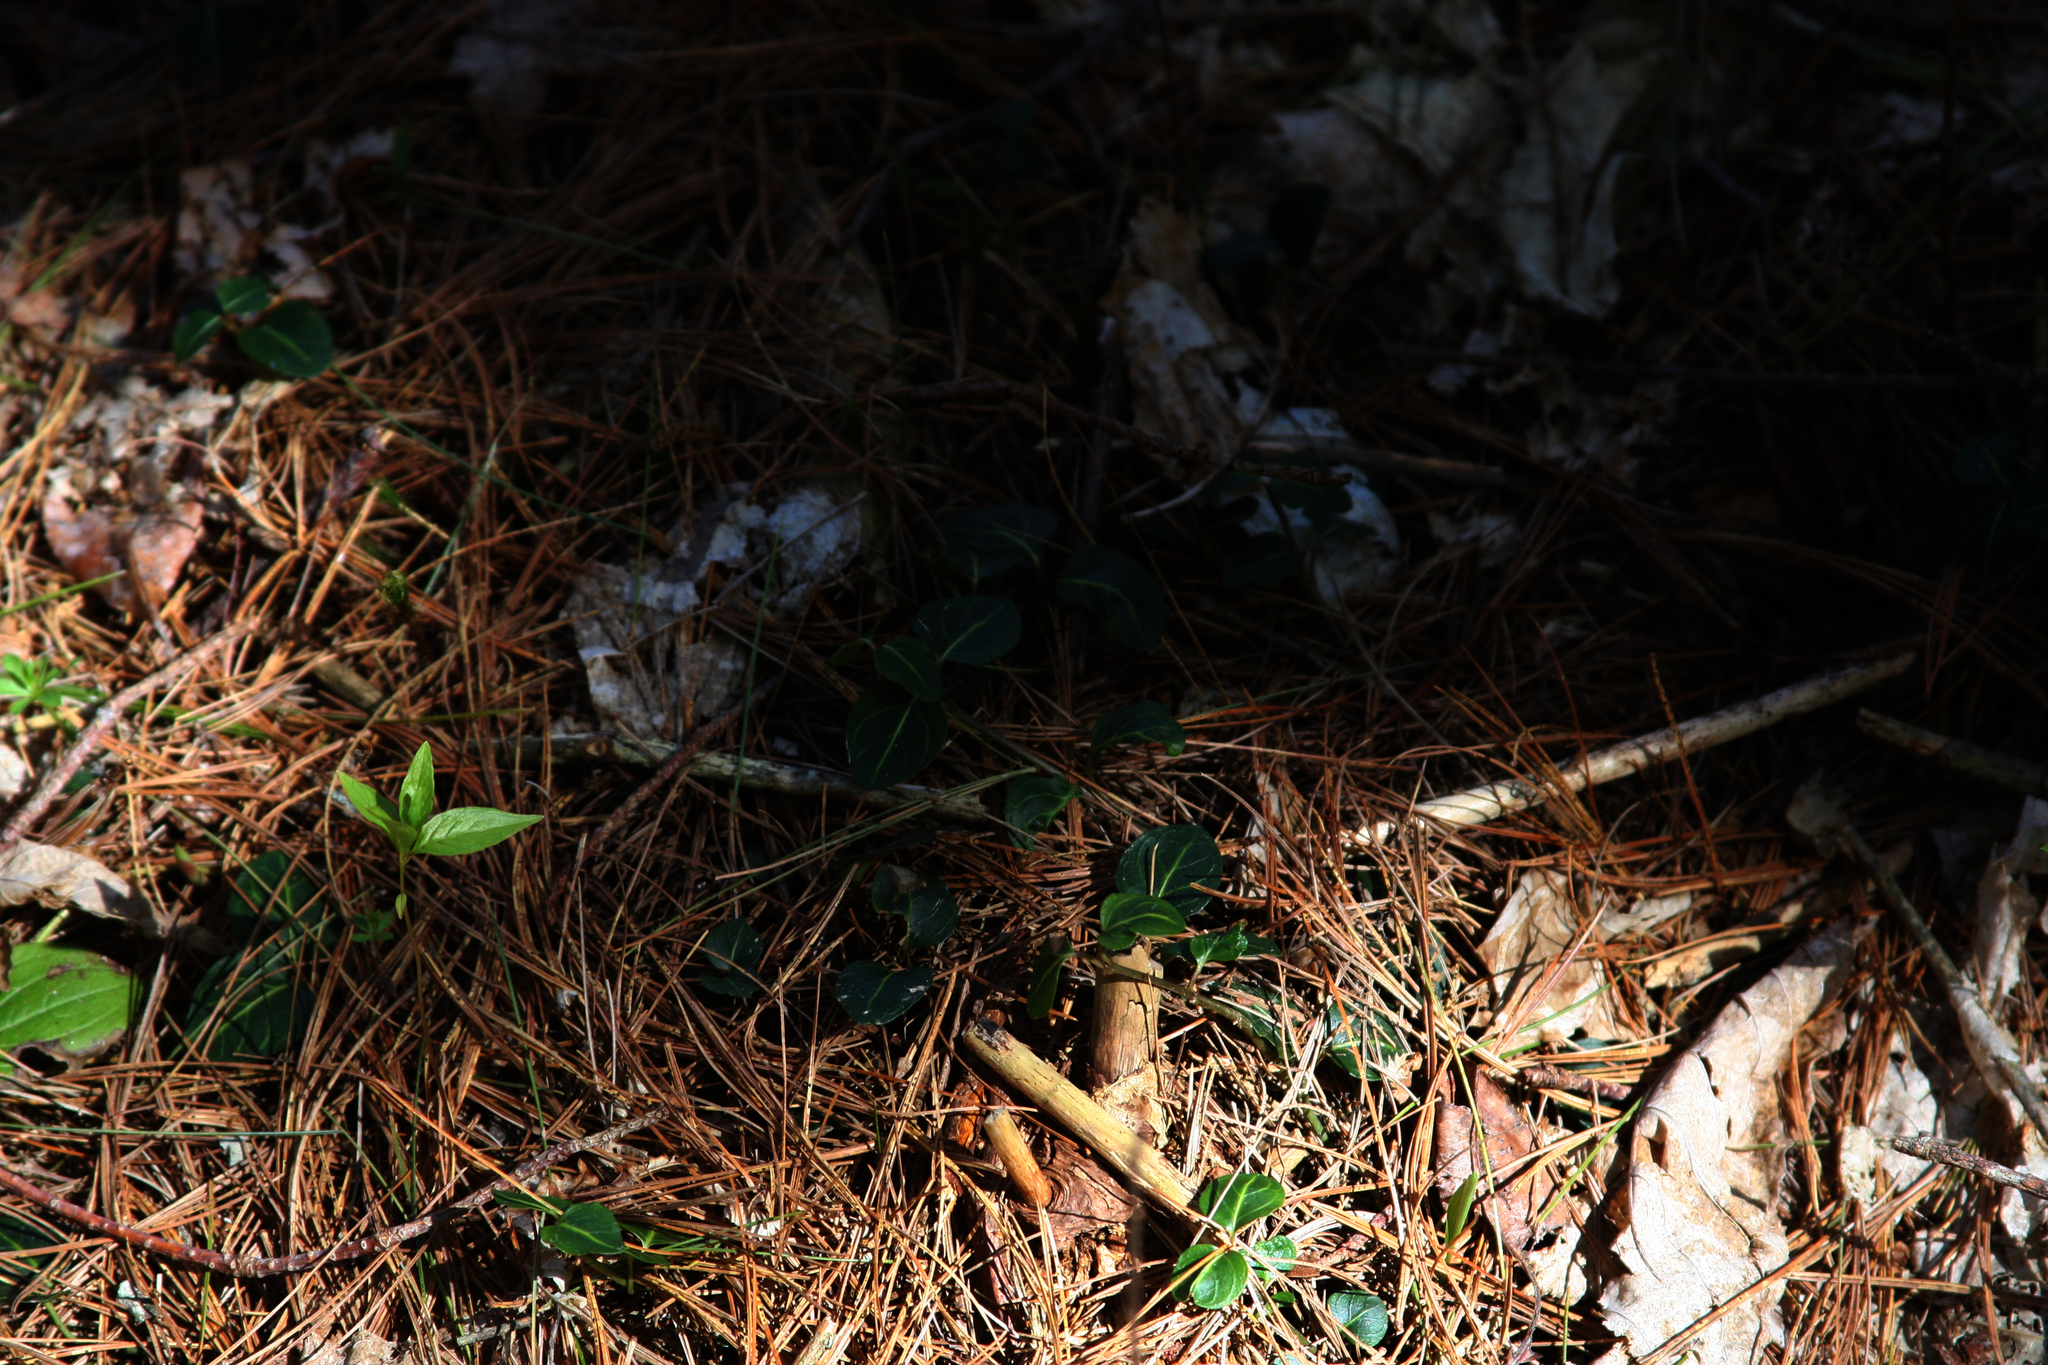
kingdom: Plantae
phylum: Tracheophyta
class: Magnoliopsida
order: Gentianales
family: Rubiaceae
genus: Mitchella
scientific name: Mitchella repens
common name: Partridge-berry
